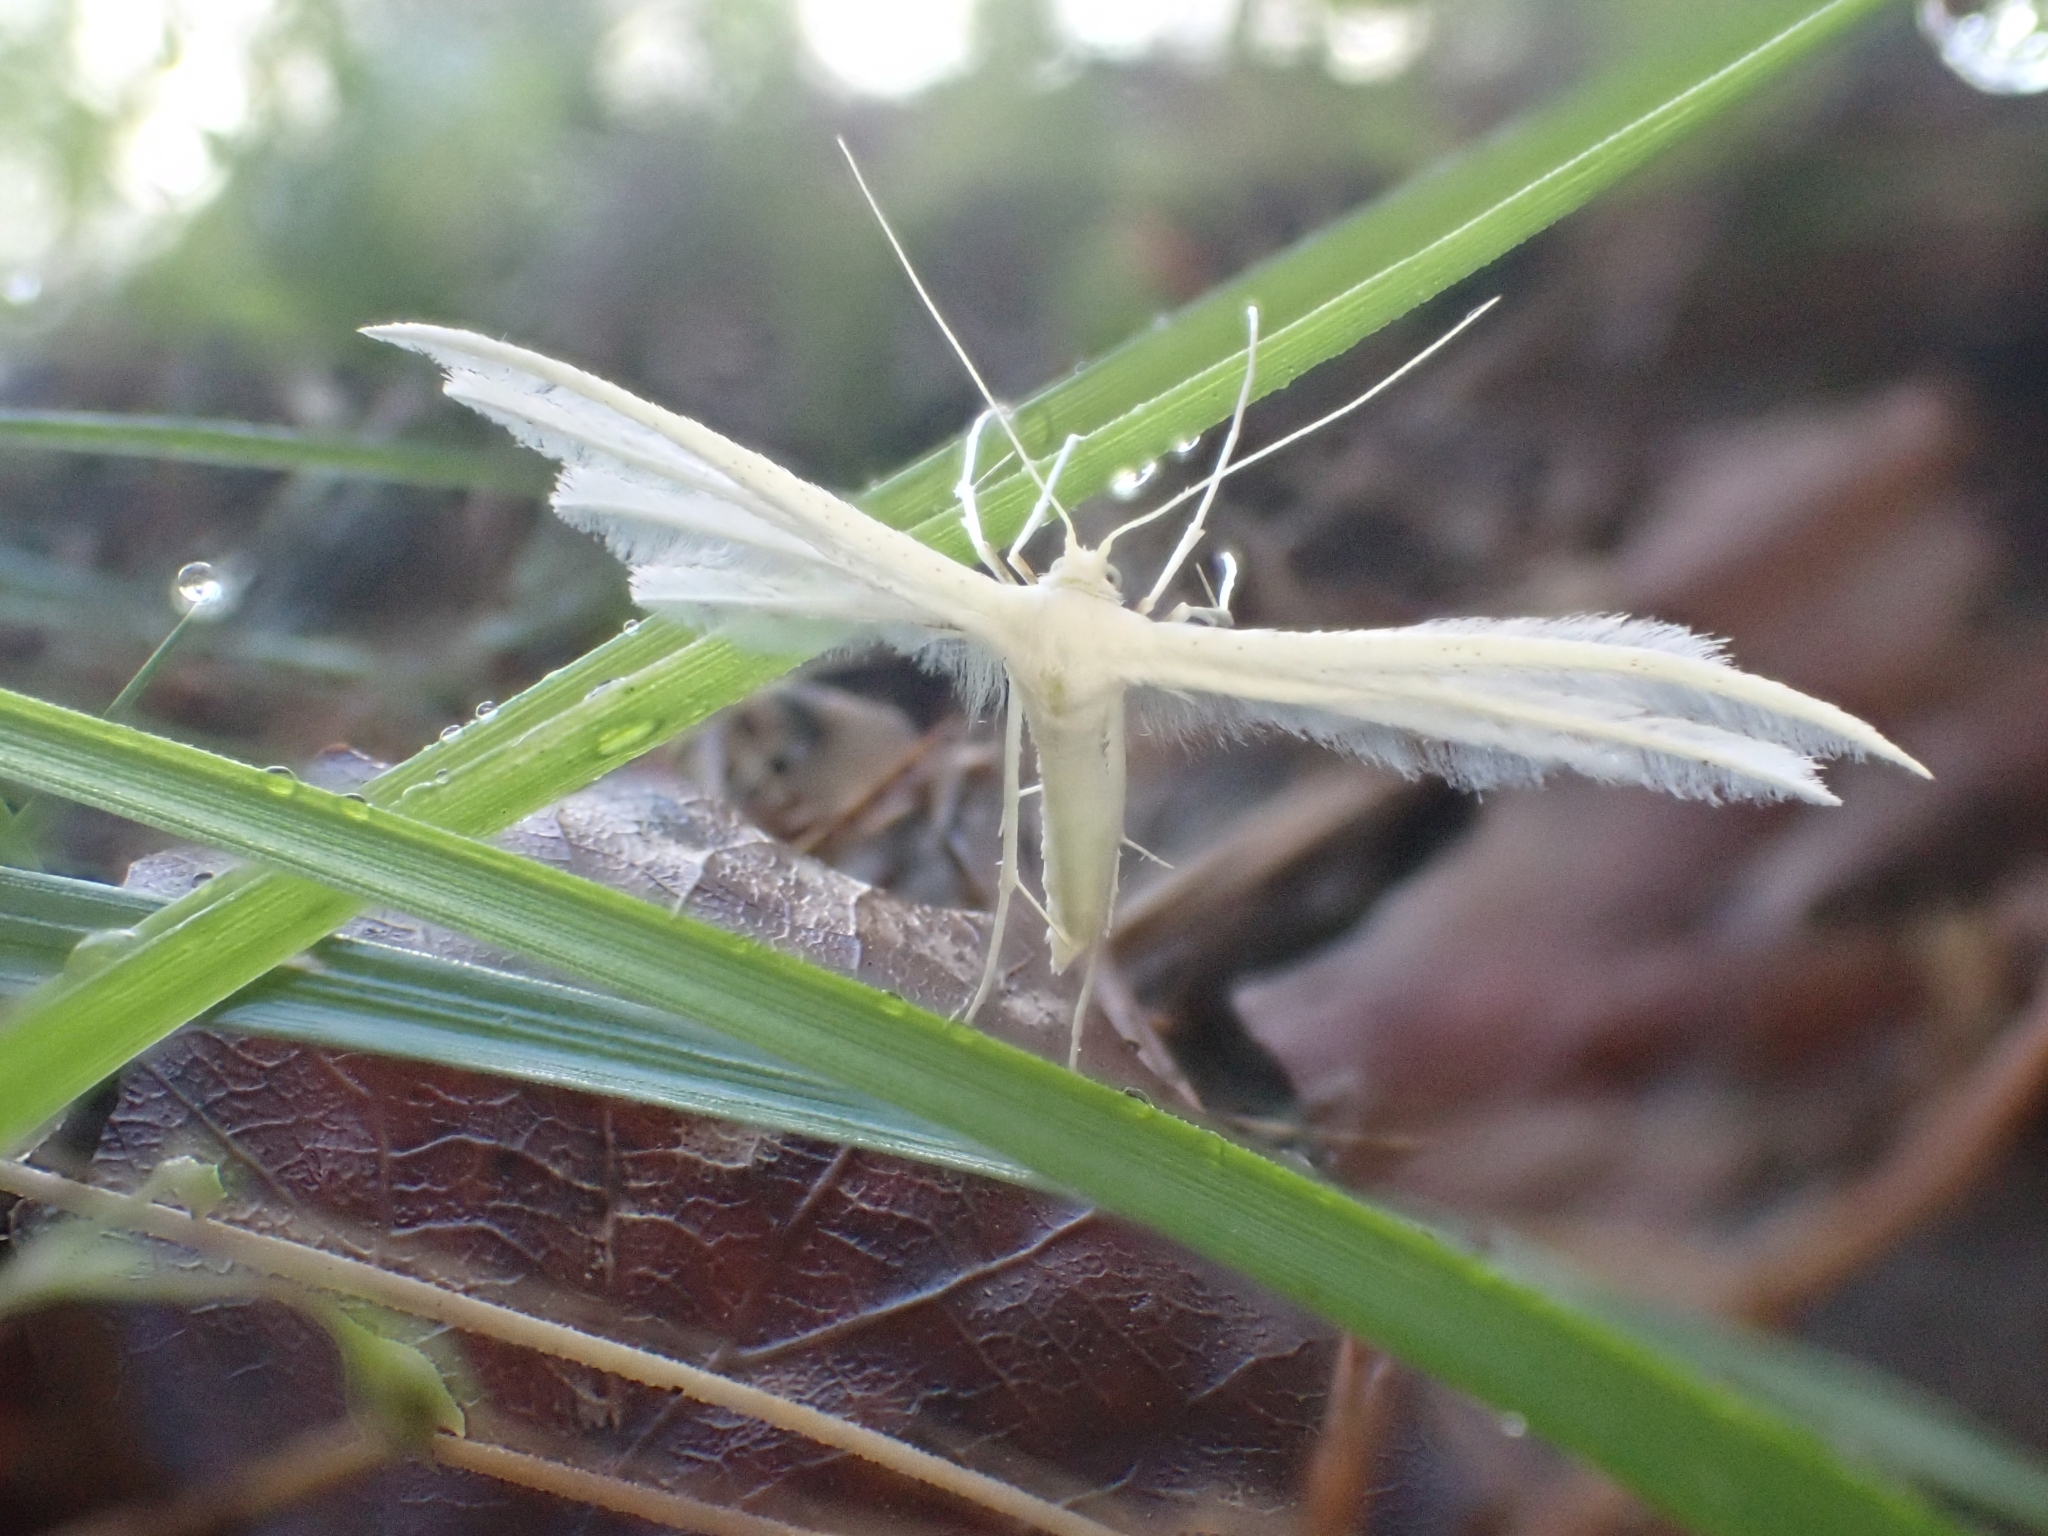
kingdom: Animalia
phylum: Arthropoda
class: Insecta
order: Lepidoptera
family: Pterophoridae
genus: Pterophorus
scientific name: Pterophorus pentadactyla
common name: White plume moth
